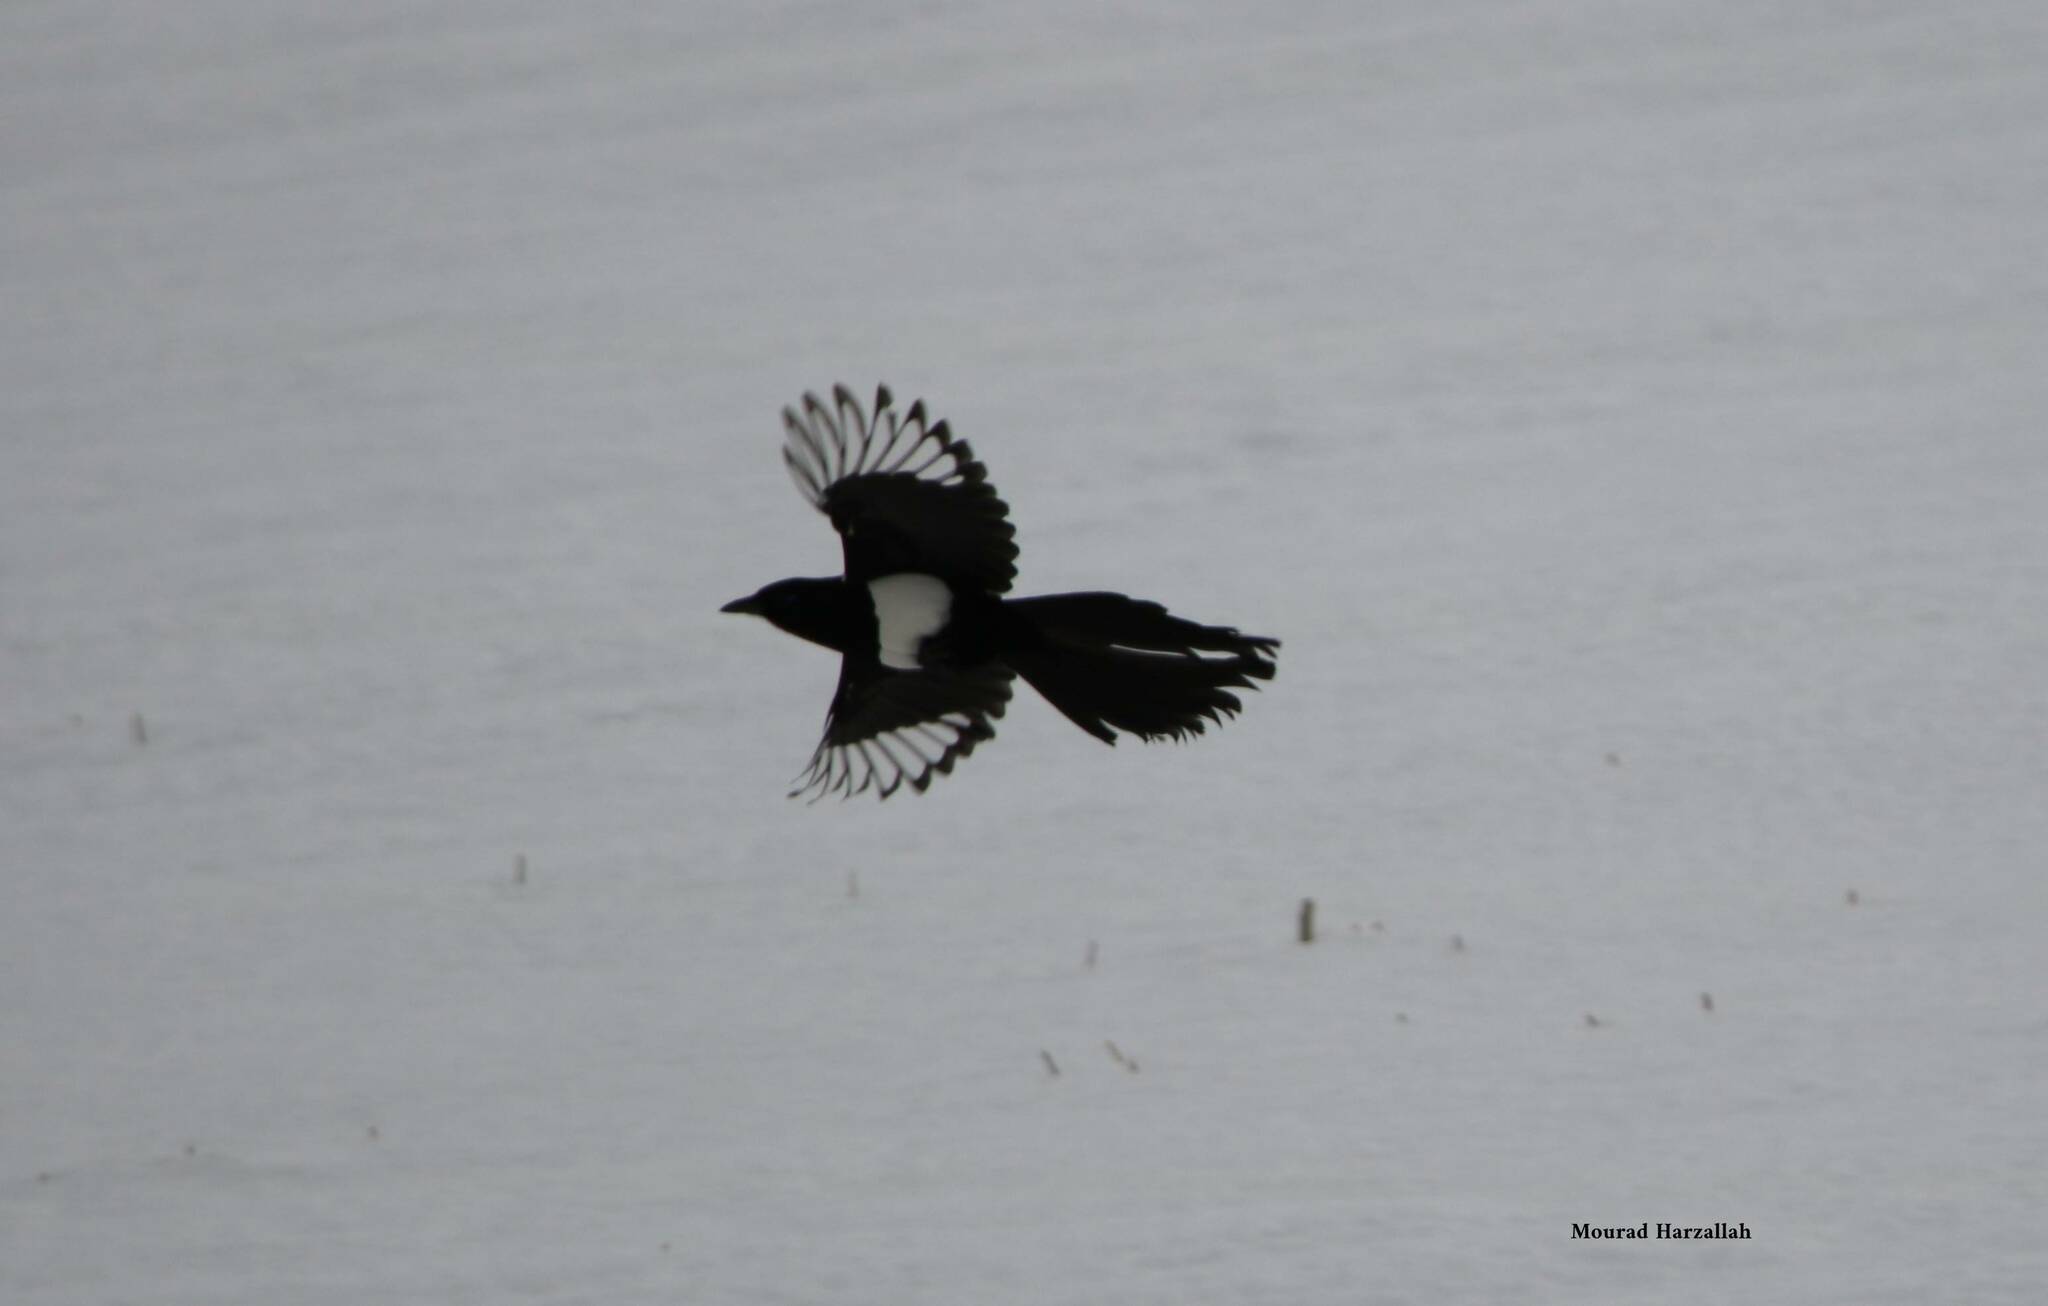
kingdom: Animalia
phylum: Chordata
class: Aves
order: Passeriformes
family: Corvidae
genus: Pica
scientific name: Pica mauritanica
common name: Maghreb magpie
